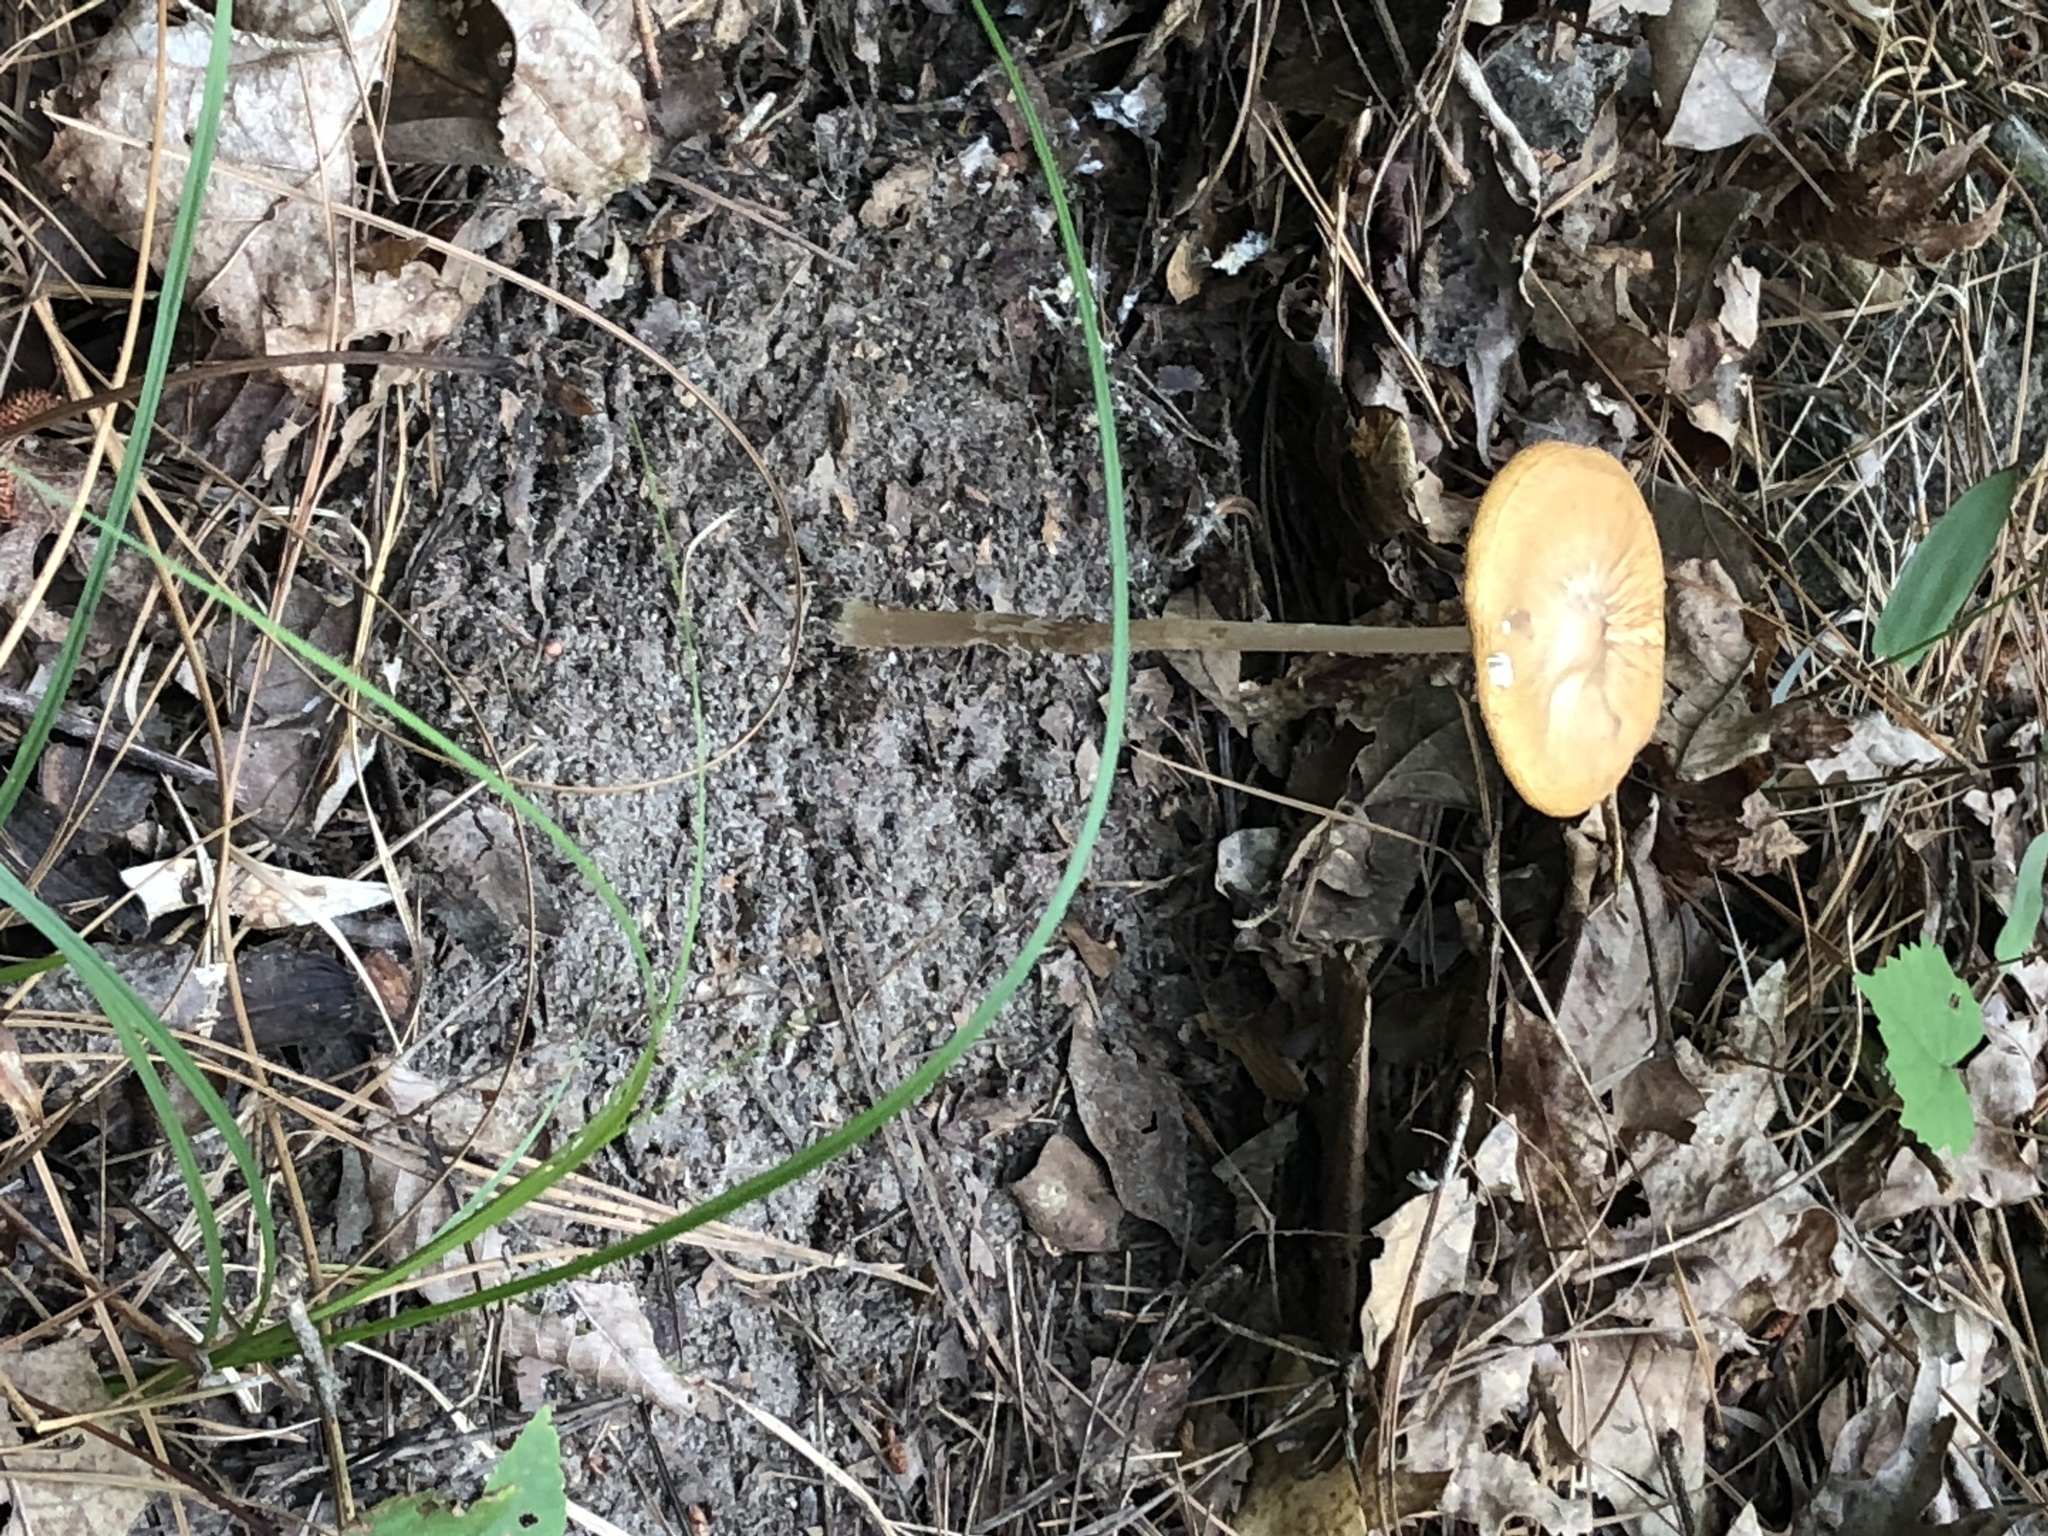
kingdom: Fungi
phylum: Basidiomycota
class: Agaricomycetes
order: Agaricales
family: Physalacriaceae
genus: Hymenopellis
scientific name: Hymenopellis incognita
